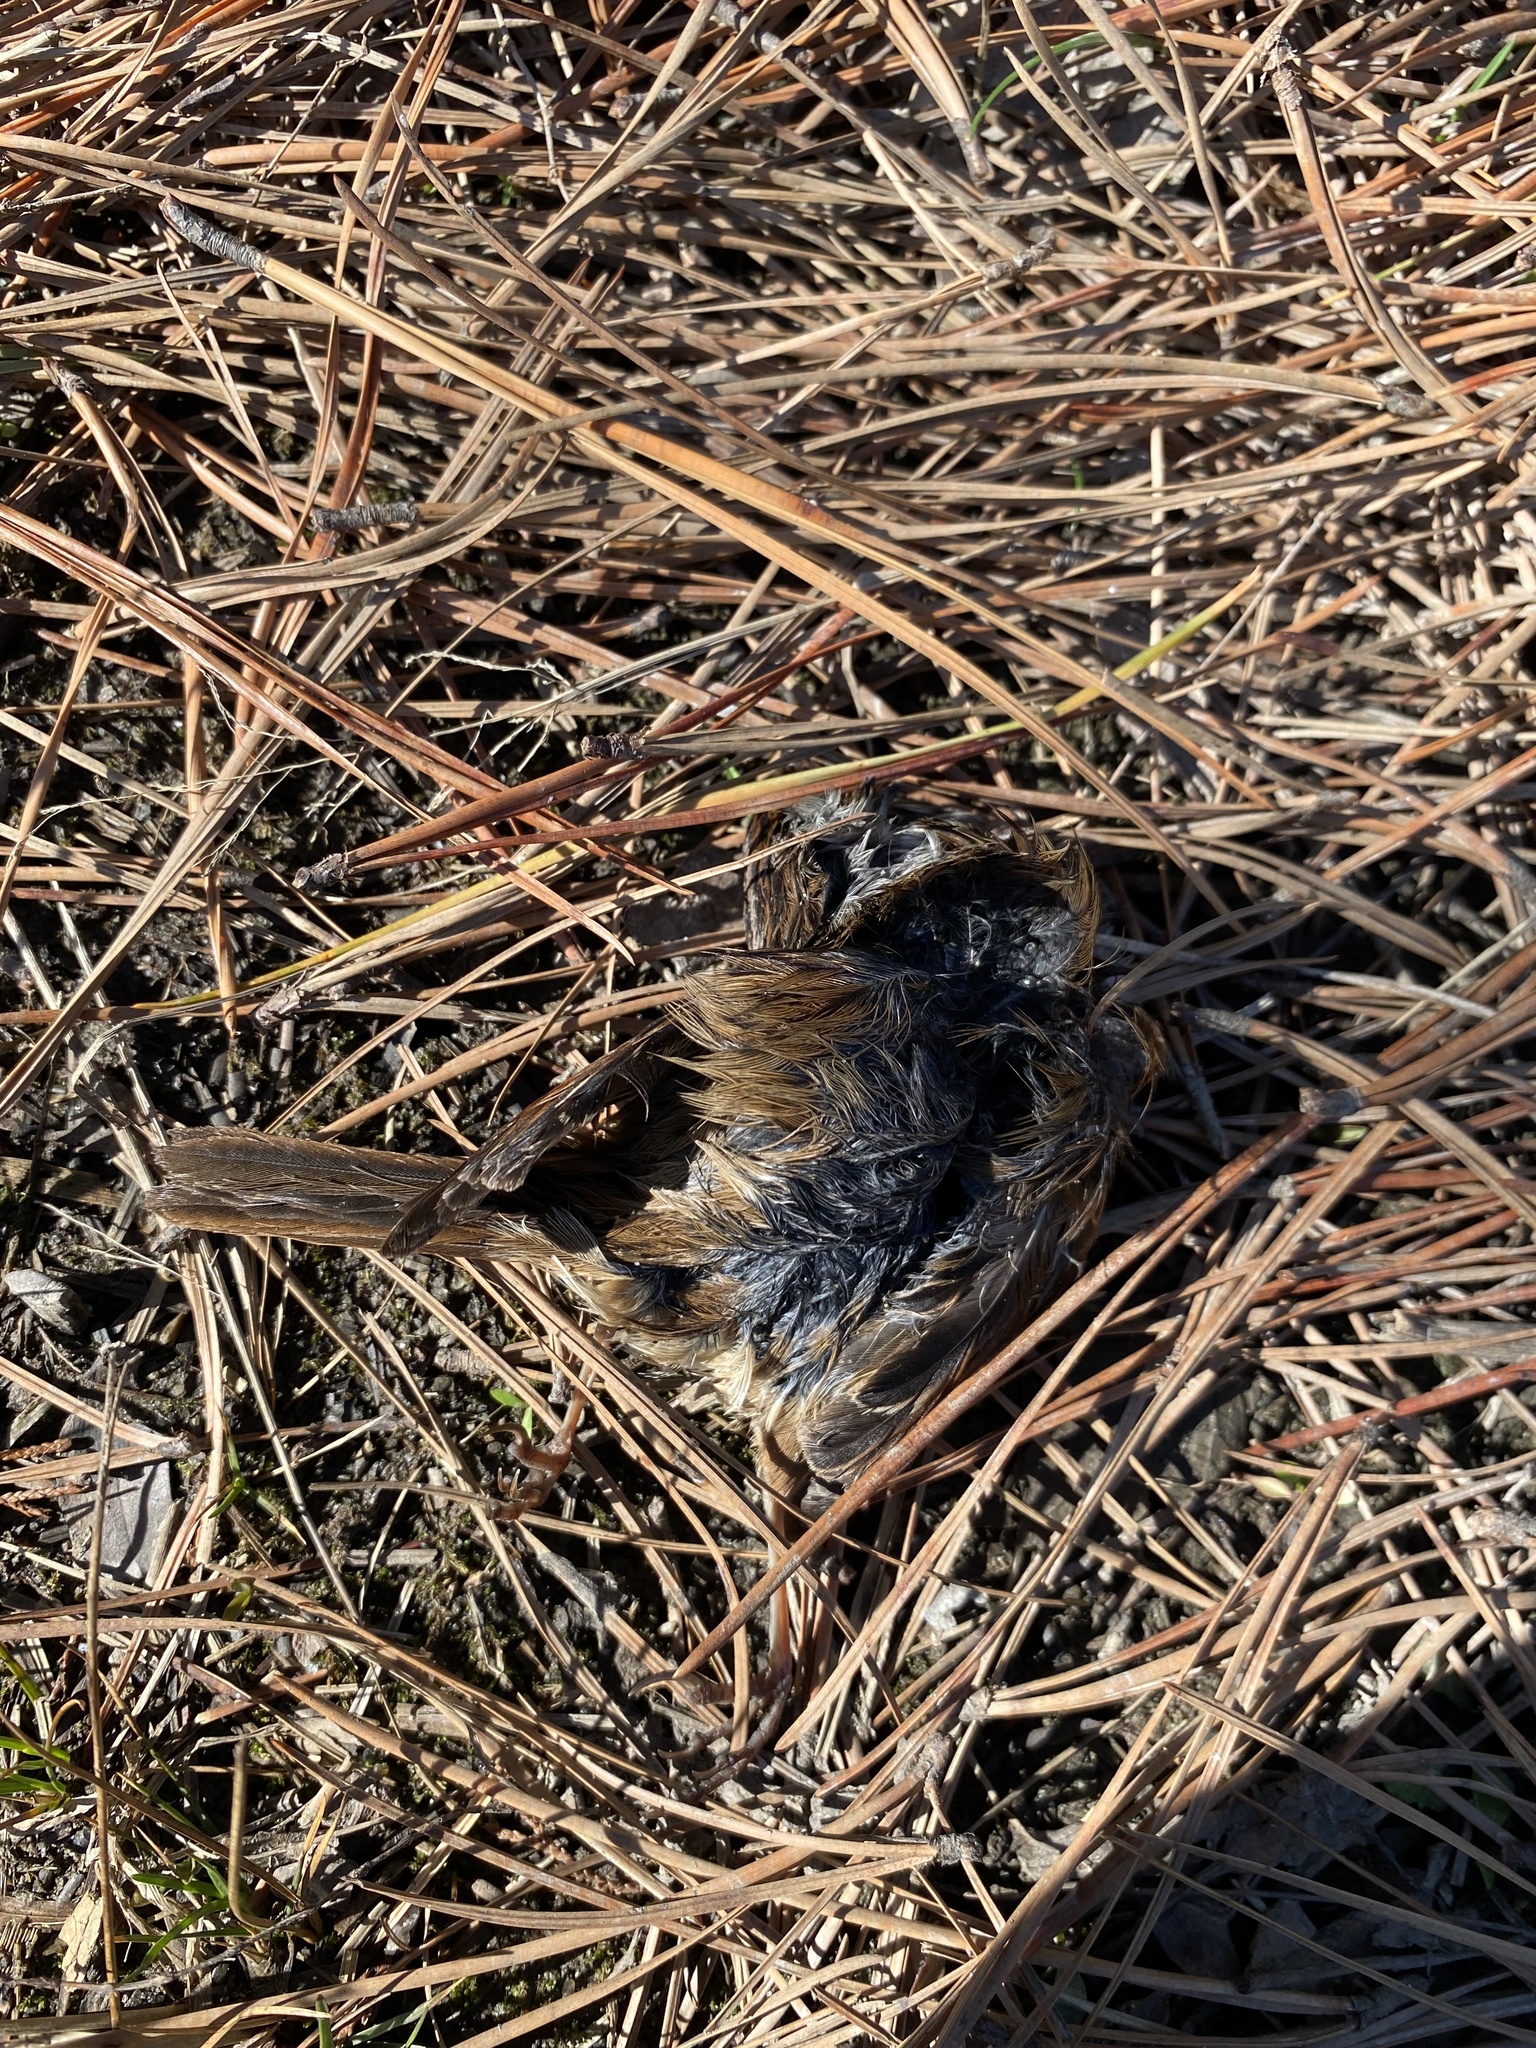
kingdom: Animalia
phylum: Chordata
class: Aves
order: Passeriformes
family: Passerellidae
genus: Melospiza
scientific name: Melospiza georgiana
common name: Swamp sparrow
